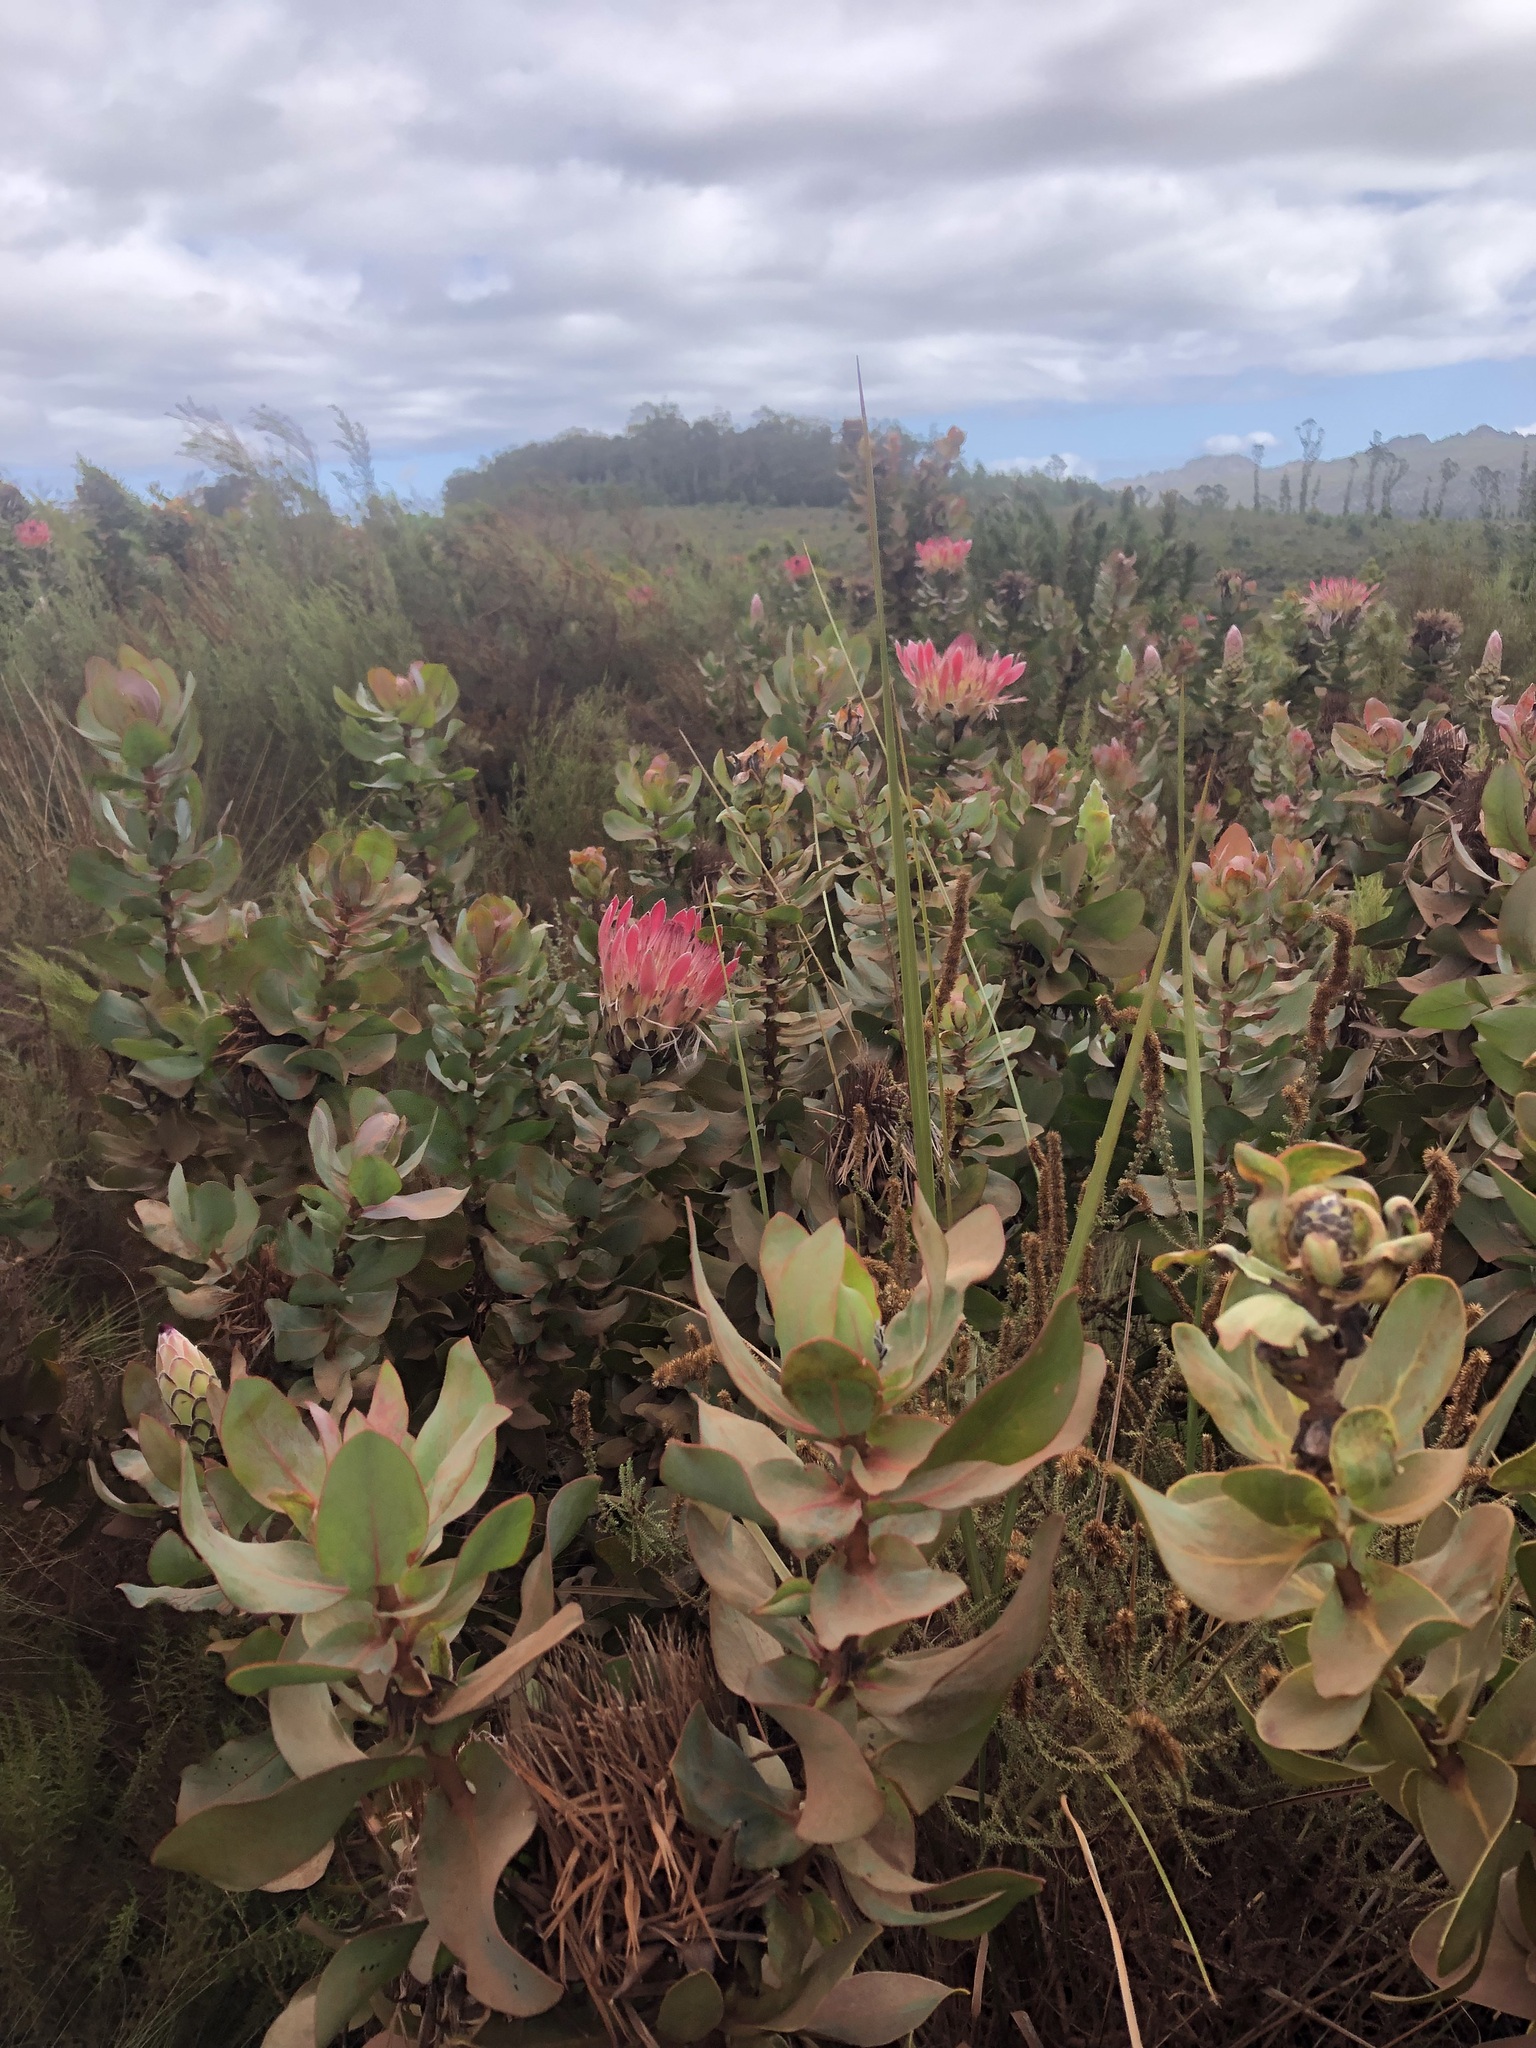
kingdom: Plantae
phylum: Tracheophyta
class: Magnoliopsida
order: Proteales
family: Proteaceae
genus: Protea
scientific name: Protea eximia
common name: Broad-leaved sugarbush
